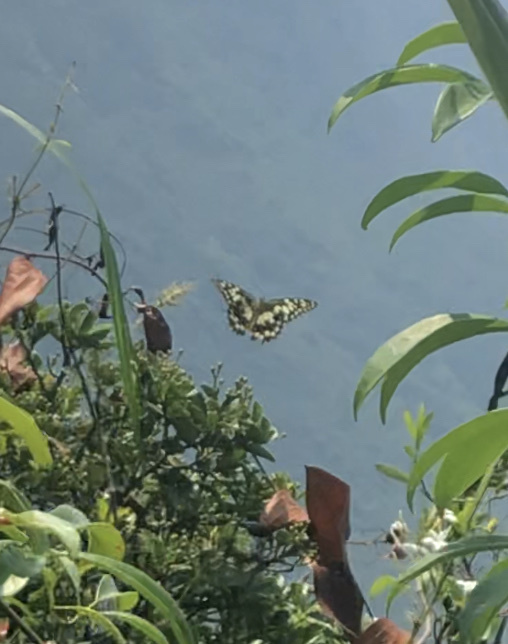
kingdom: Animalia
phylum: Arthropoda
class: Insecta
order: Lepidoptera
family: Papilionidae
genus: Papilio
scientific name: Papilio demoleus
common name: Lime butterfly
